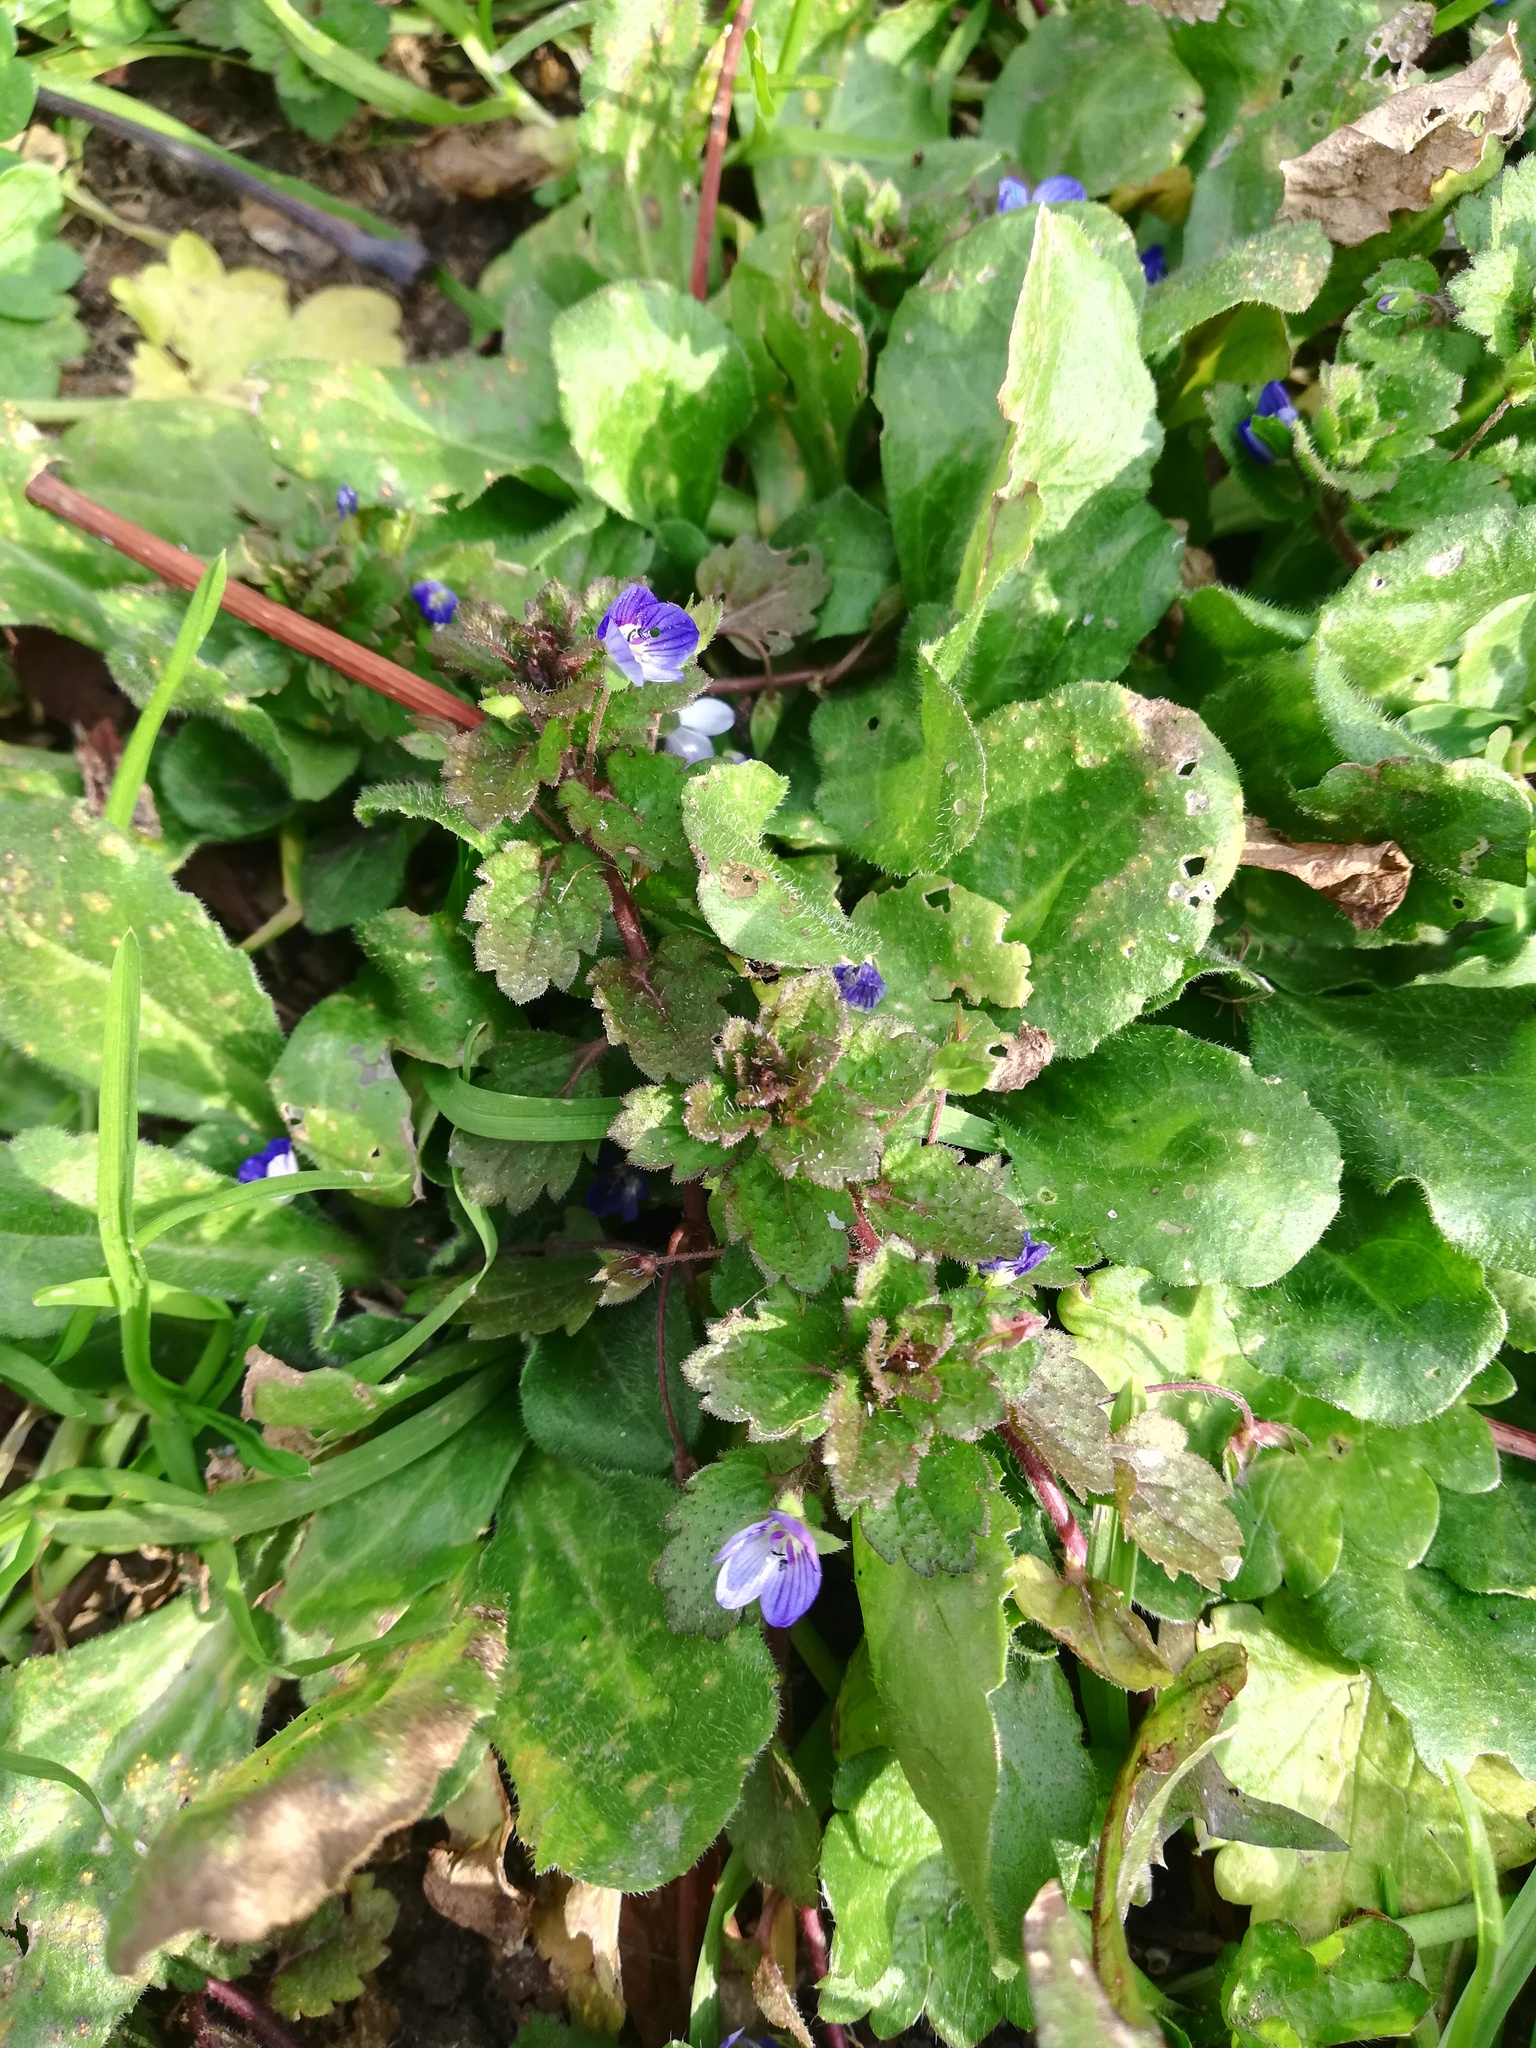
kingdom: Plantae
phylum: Tracheophyta
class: Magnoliopsida
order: Lamiales
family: Plantaginaceae
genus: Veronica
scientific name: Veronica persica
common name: Common field-speedwell
